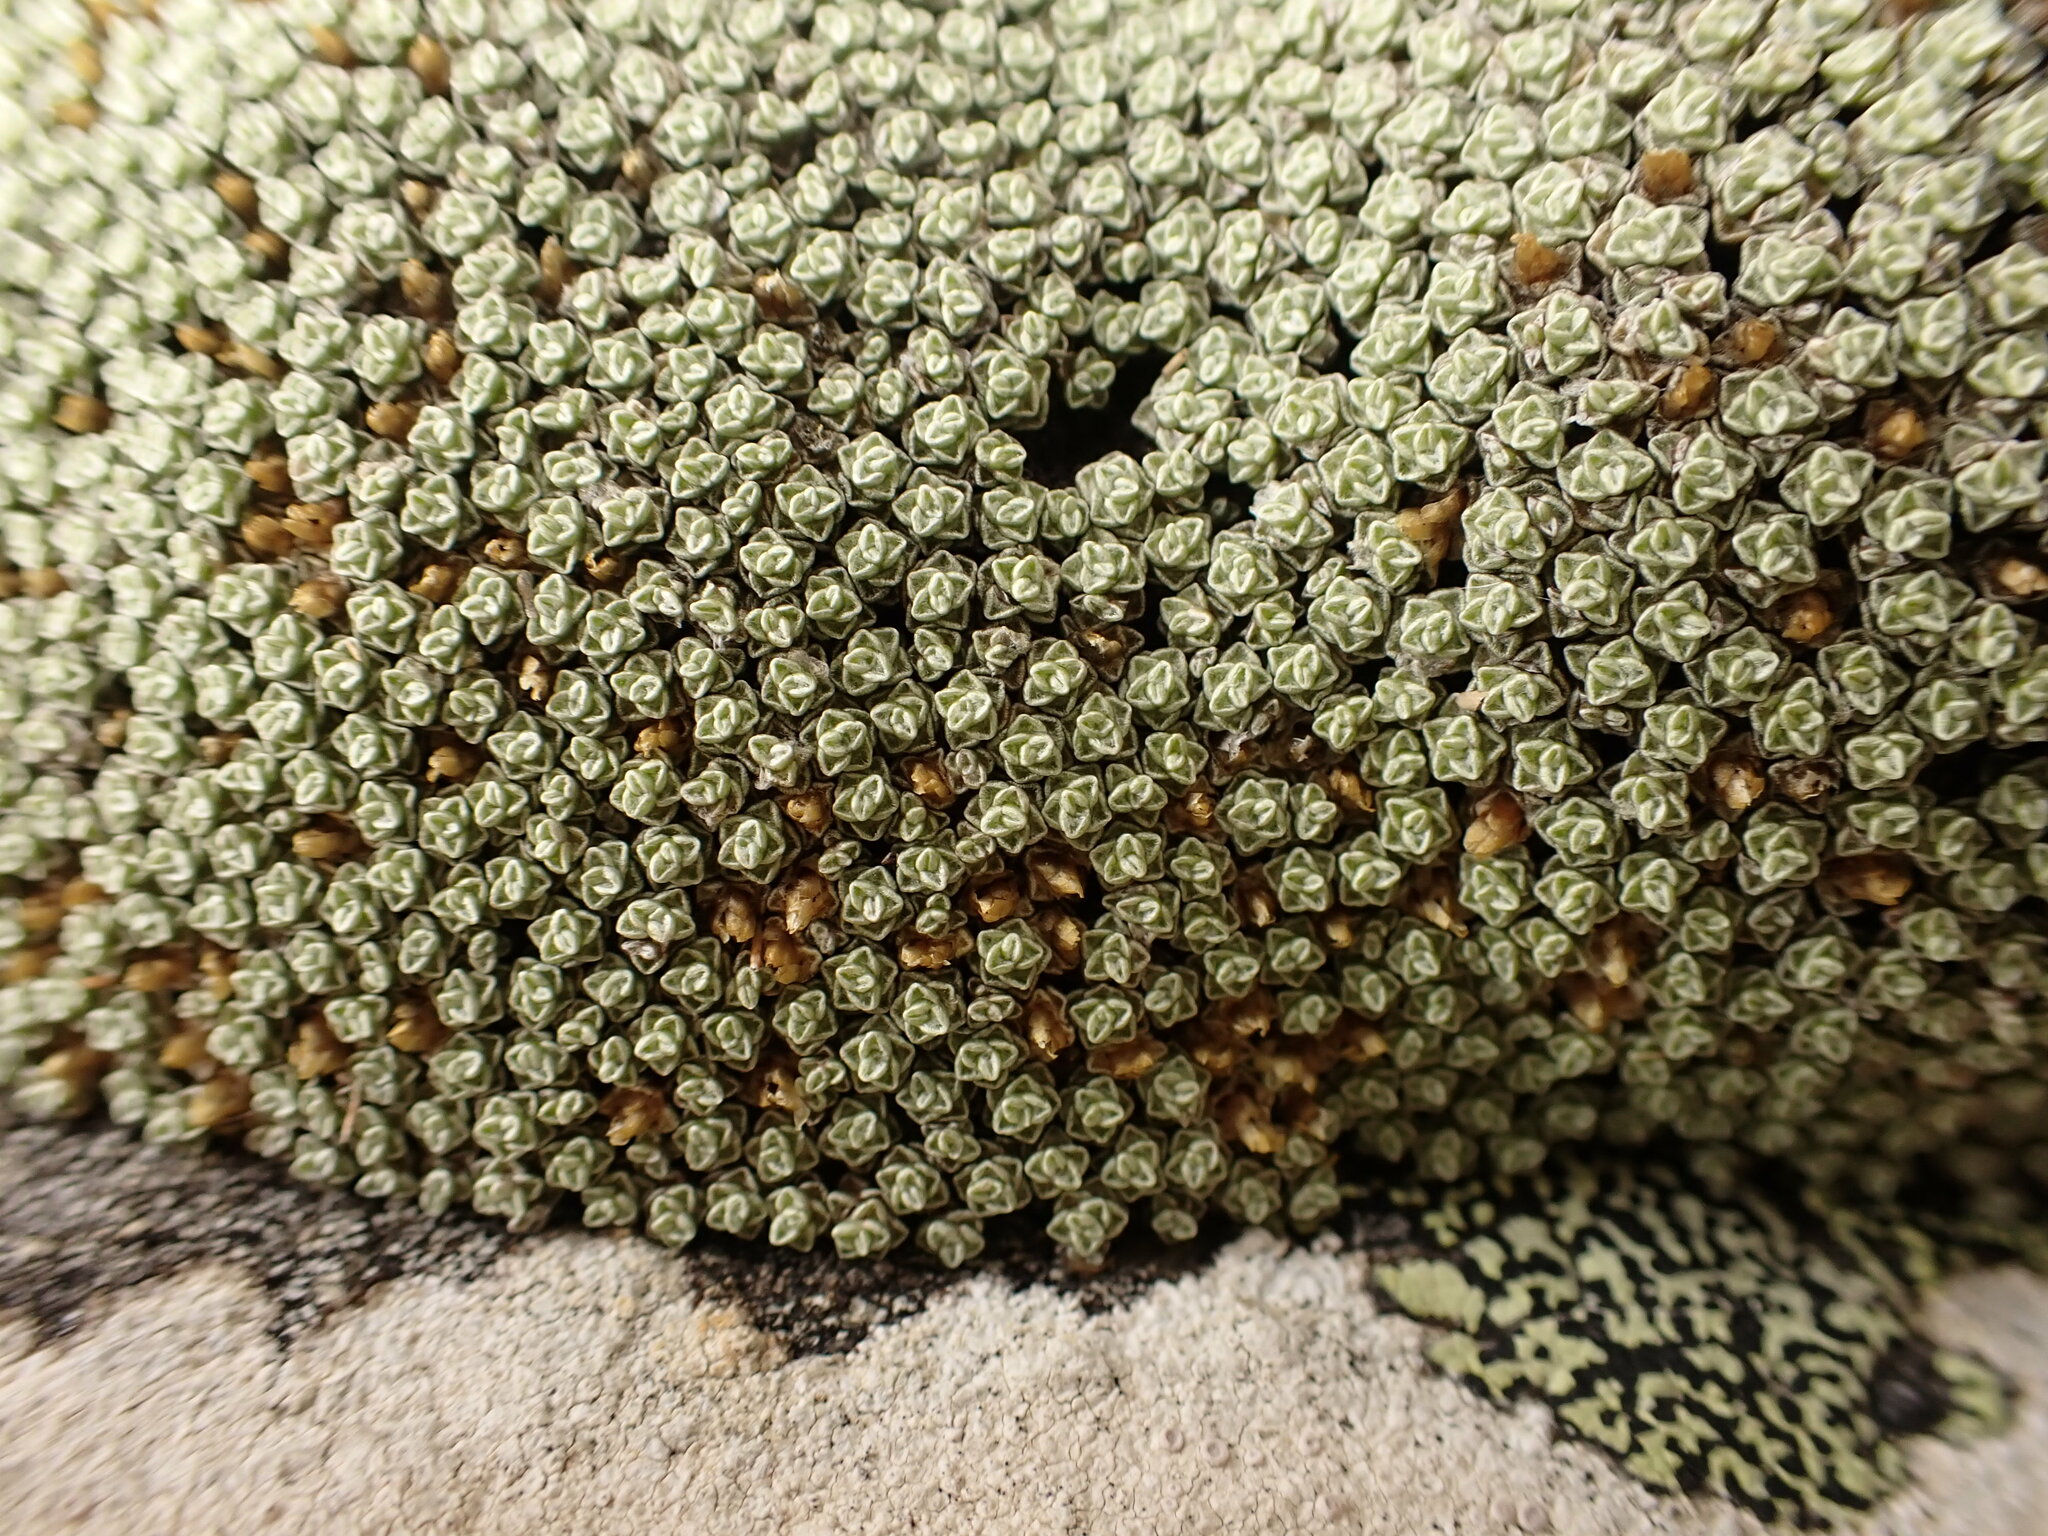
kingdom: Plantae
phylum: Tracheophyta
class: Magnoliopsida
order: Asterales
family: Asteraceae
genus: Raoulia
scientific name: Raoulia australis
